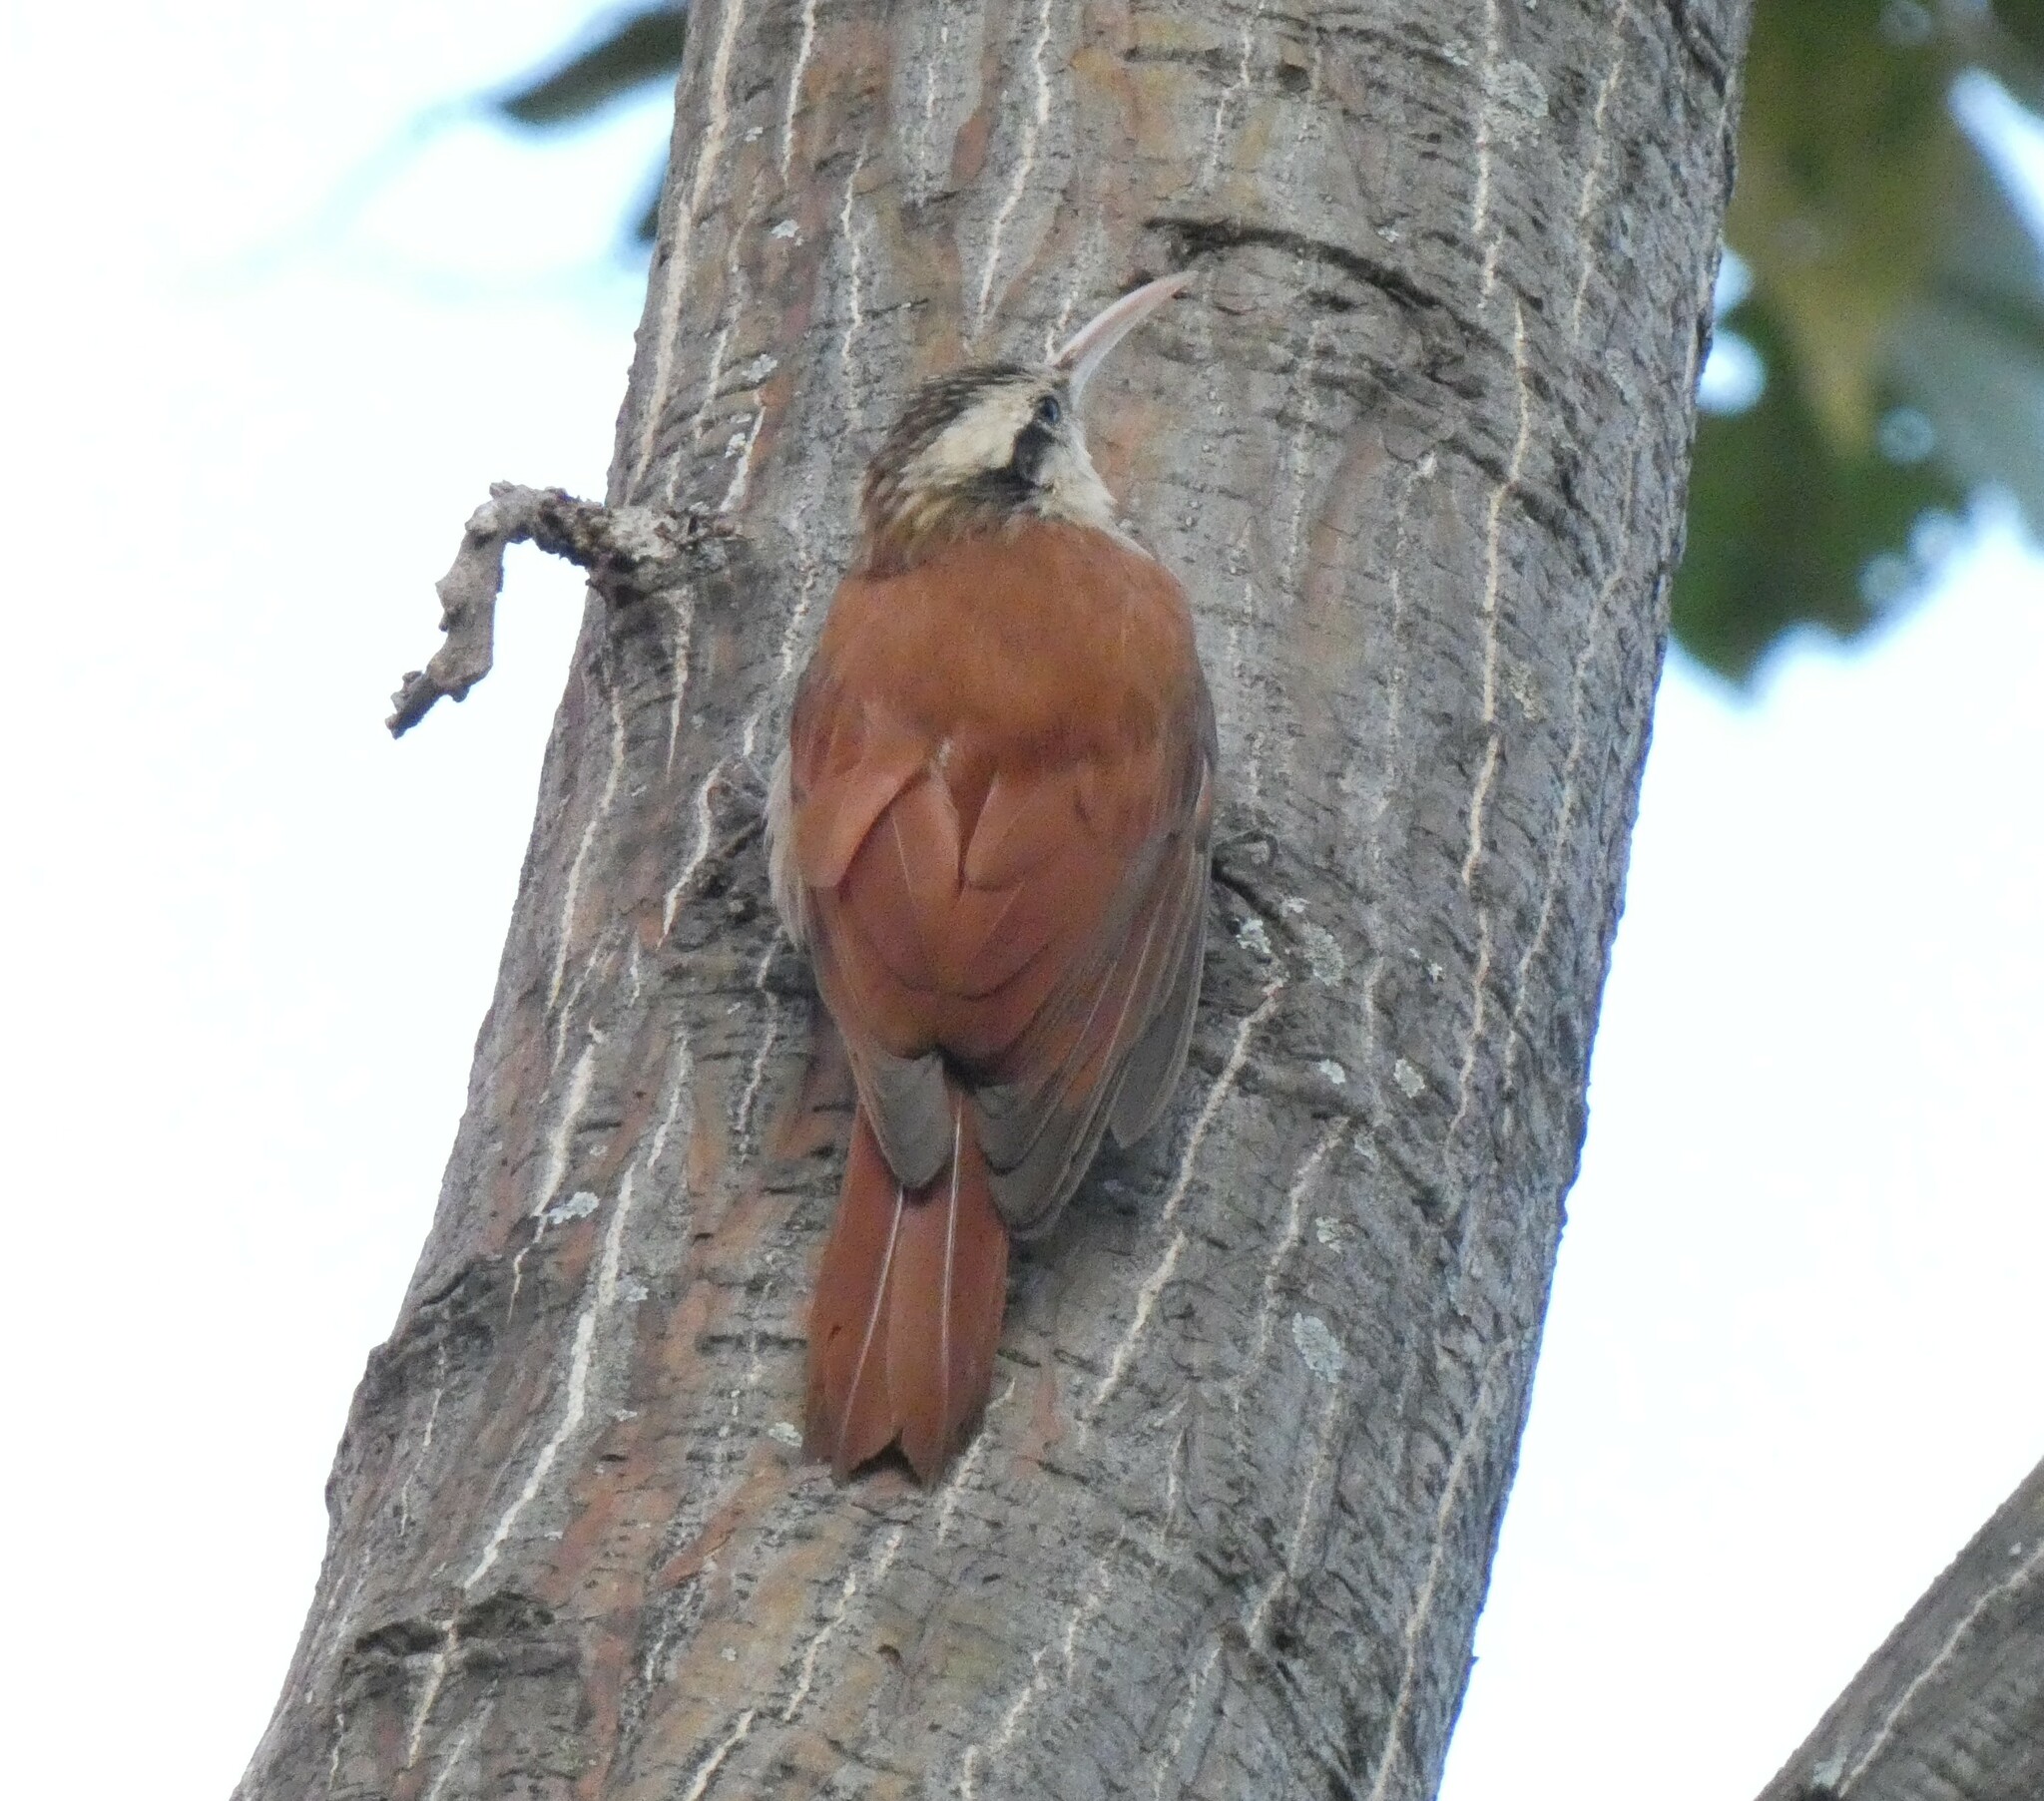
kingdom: Animalia
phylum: Chordata
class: Aves
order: Passeriformes
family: Furnariidae
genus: Lepidocolaptes
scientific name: Lepidocolaptes angustirostris
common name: Narrow-billed woodcreeper
